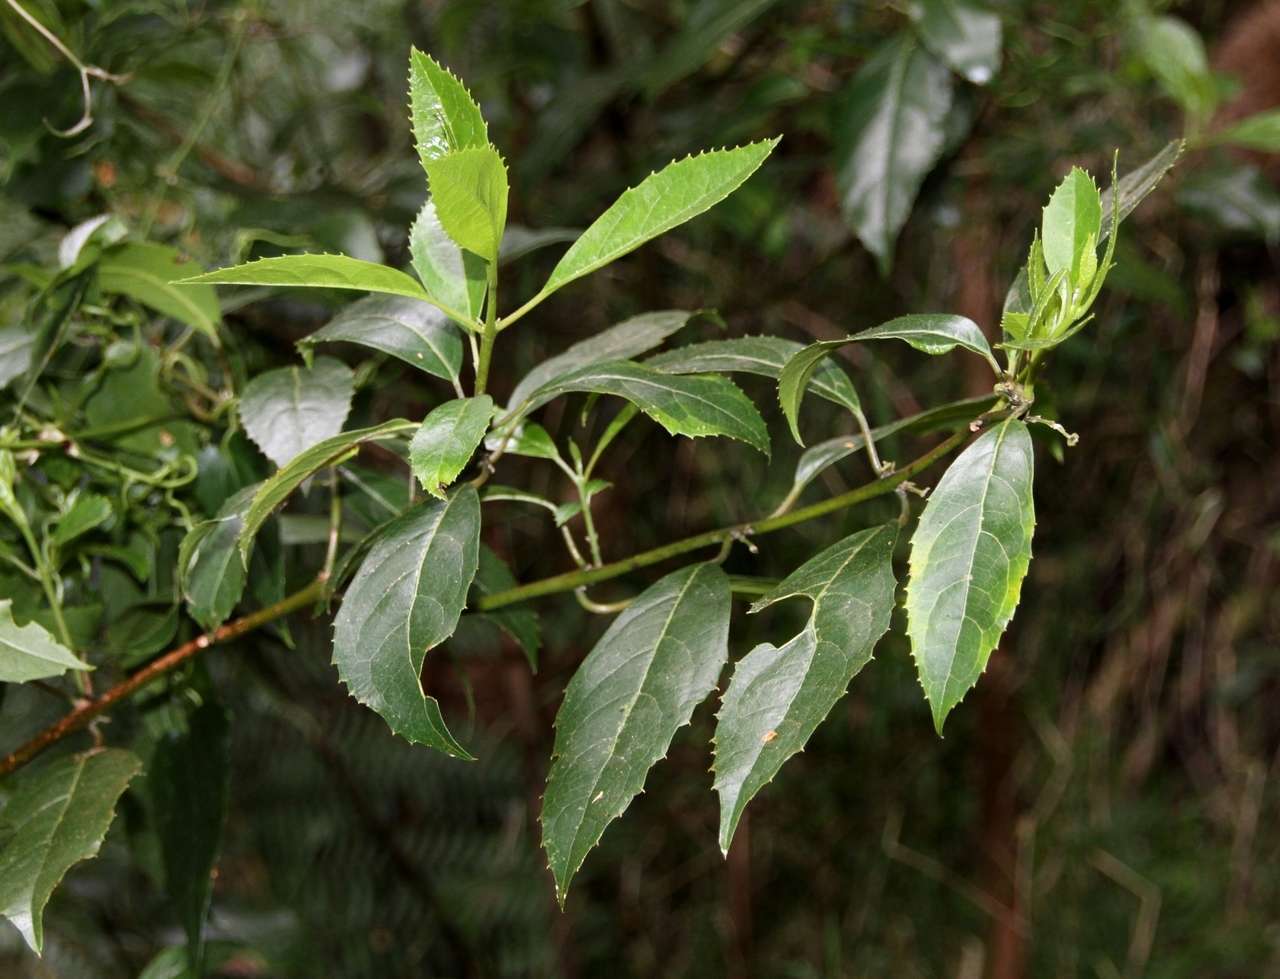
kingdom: Plantae
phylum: Tracheophyta
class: Magnoliopsida
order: Laurales
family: Monimiaceae
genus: Hedycarya
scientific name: Hedycarya angustifolia
